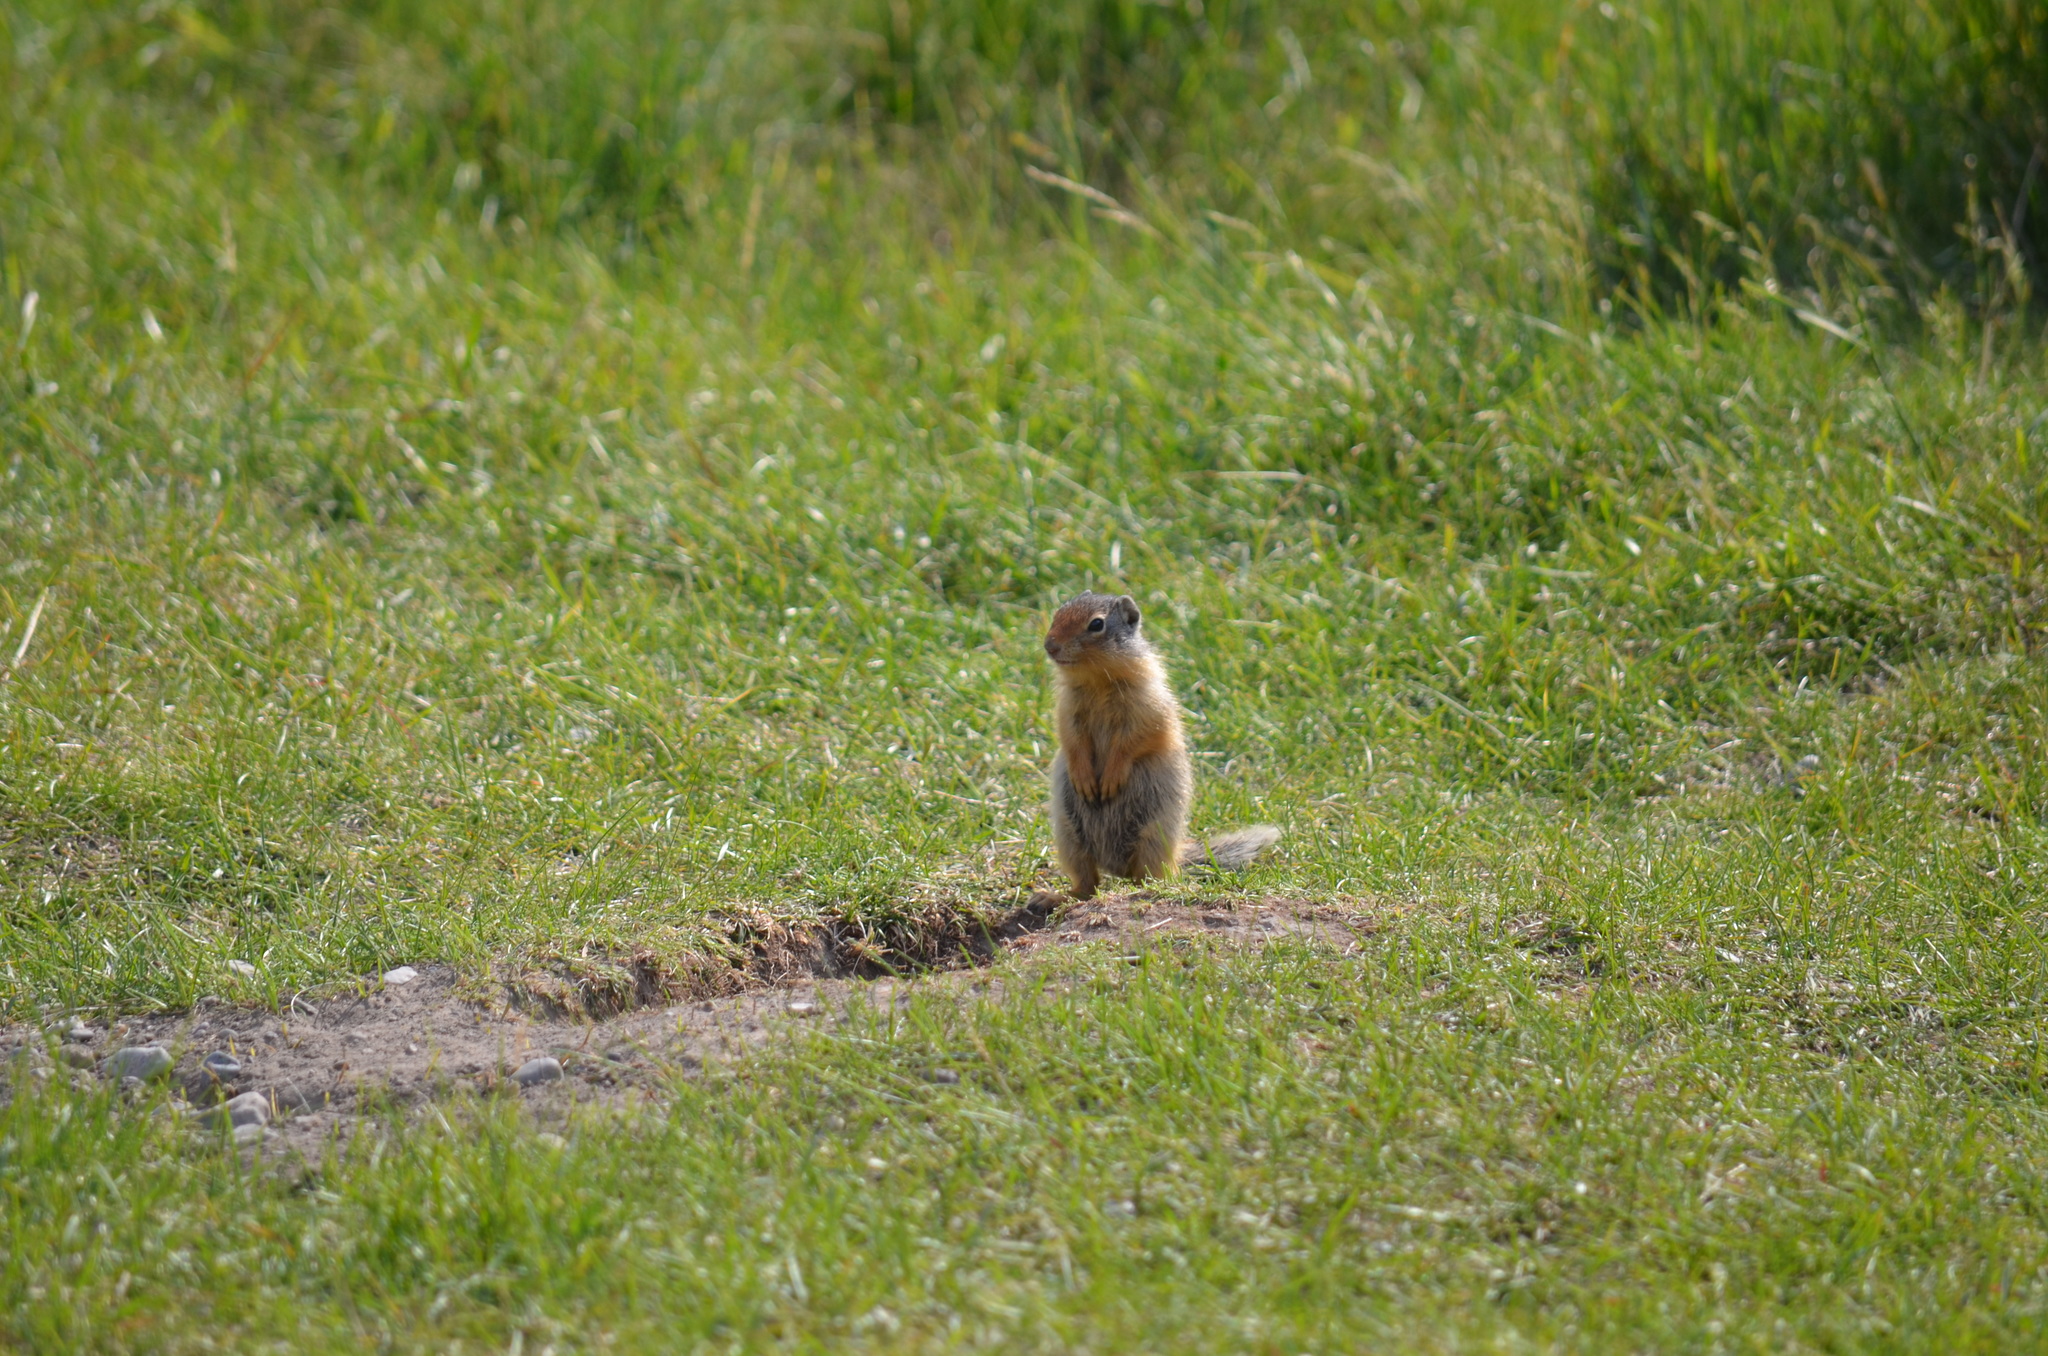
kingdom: Animalia
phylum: Chordata
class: Mammalia
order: Rodentia
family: Sciuridae
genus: Urocitellus
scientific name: Urocitellus columbianus
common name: Columbian ground squirrel
